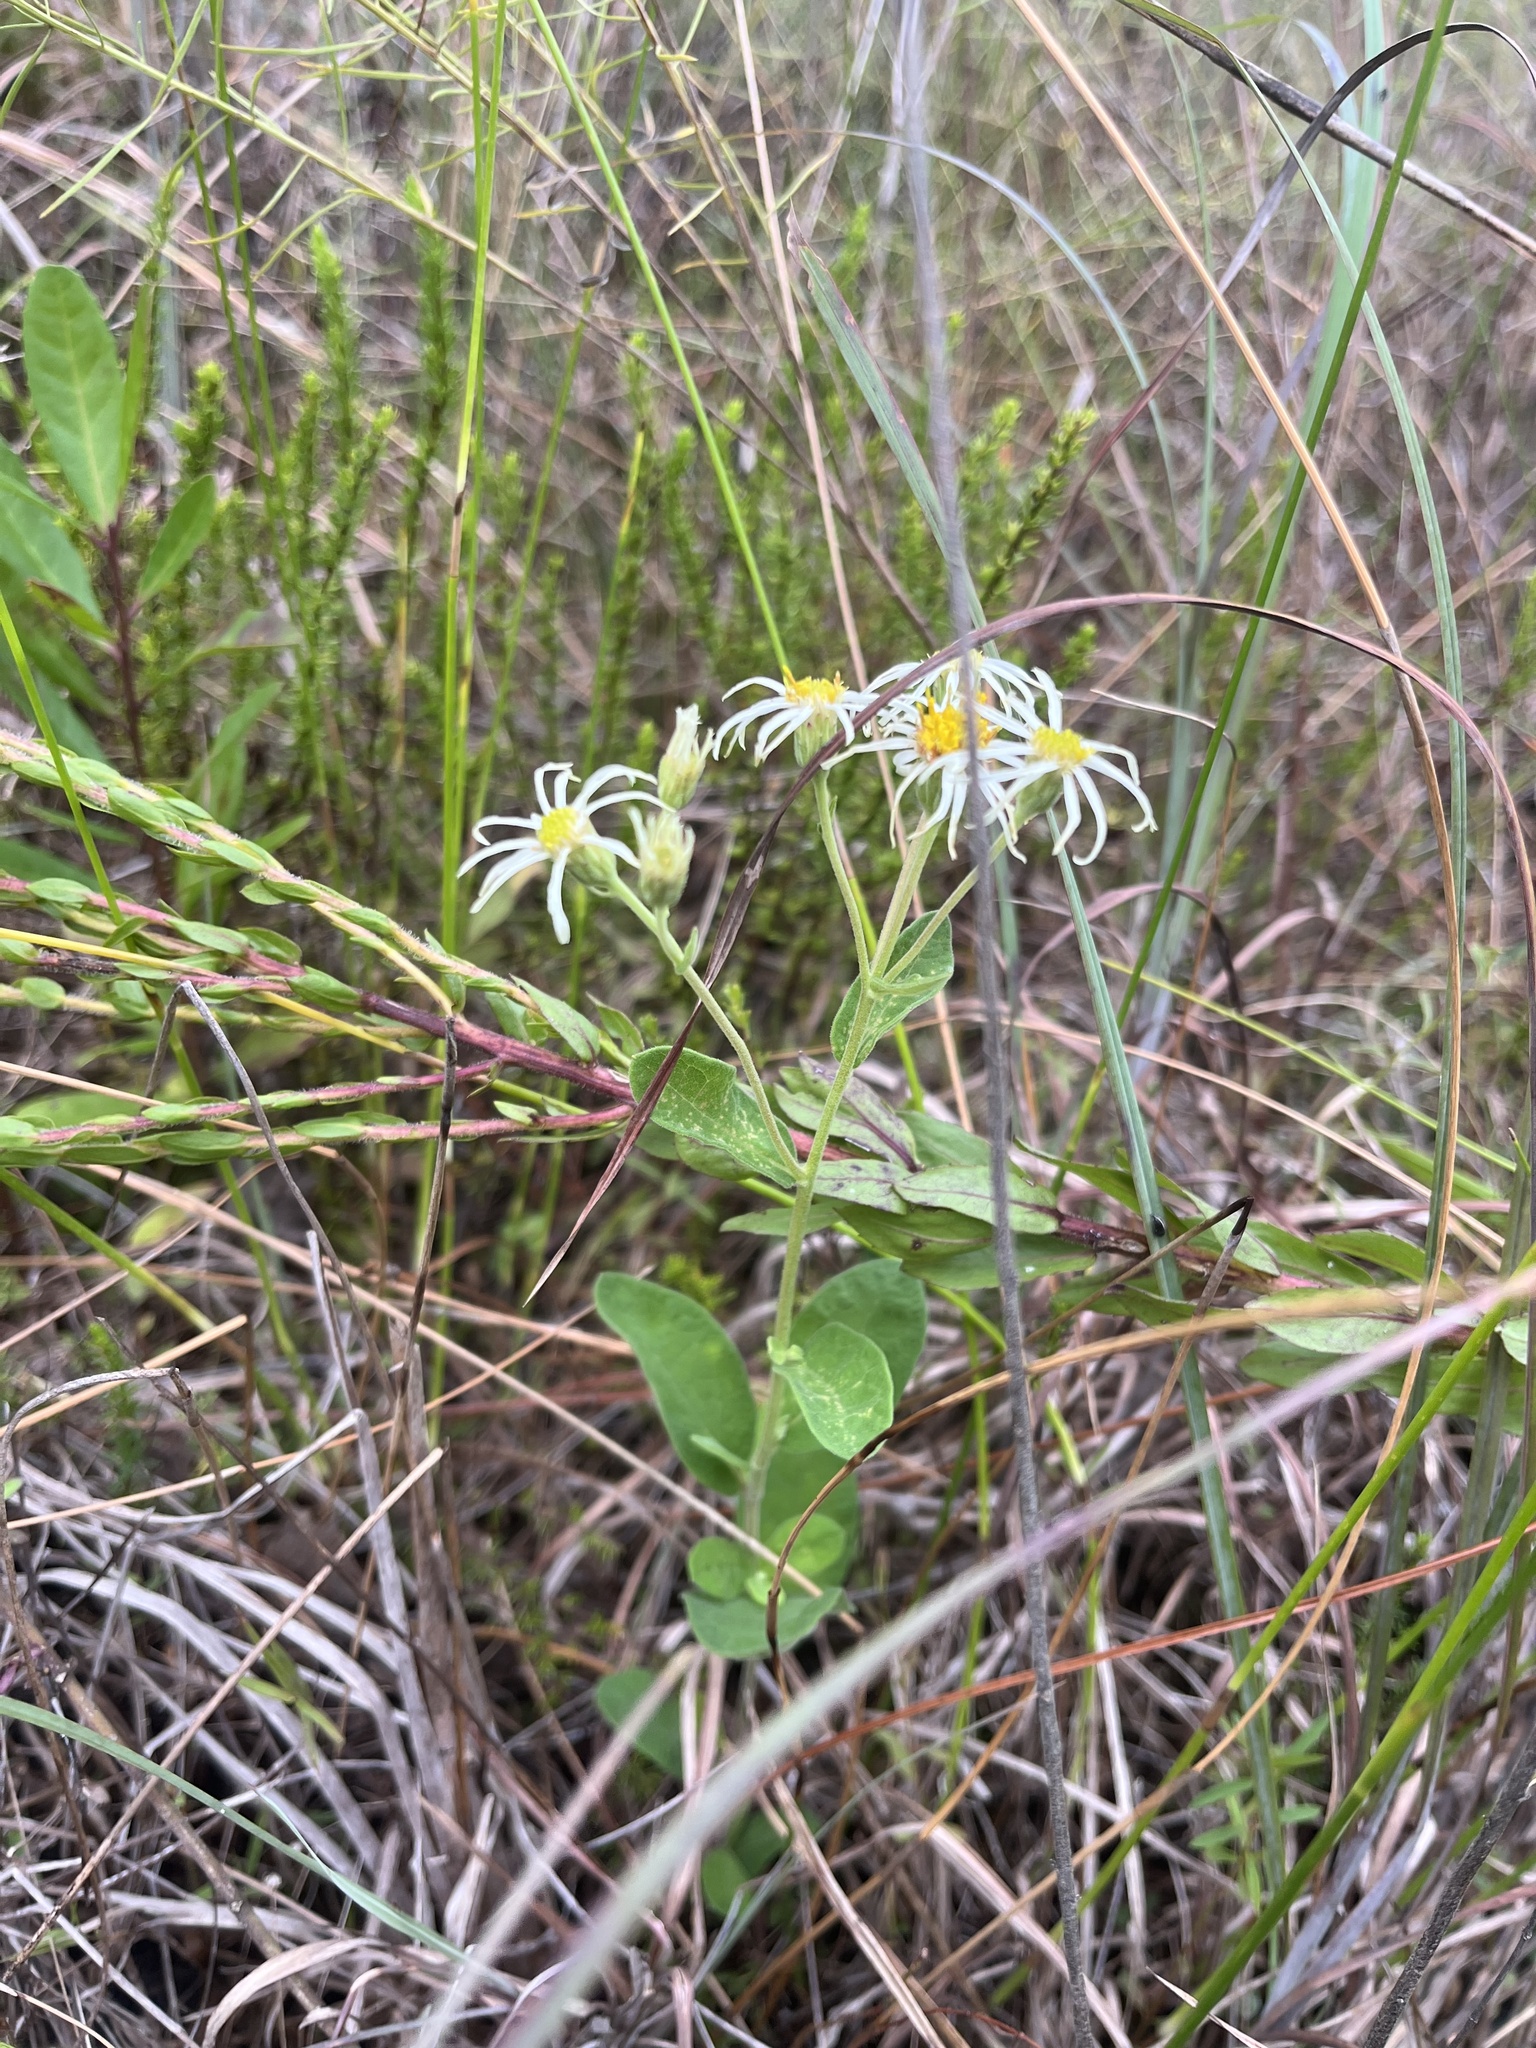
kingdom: Plantae
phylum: Tracheophyta
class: Magnoliopsida
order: Asterales
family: Asteraceae
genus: Oclemena
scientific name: Oclemena reticulata
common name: Pinebarren aster
